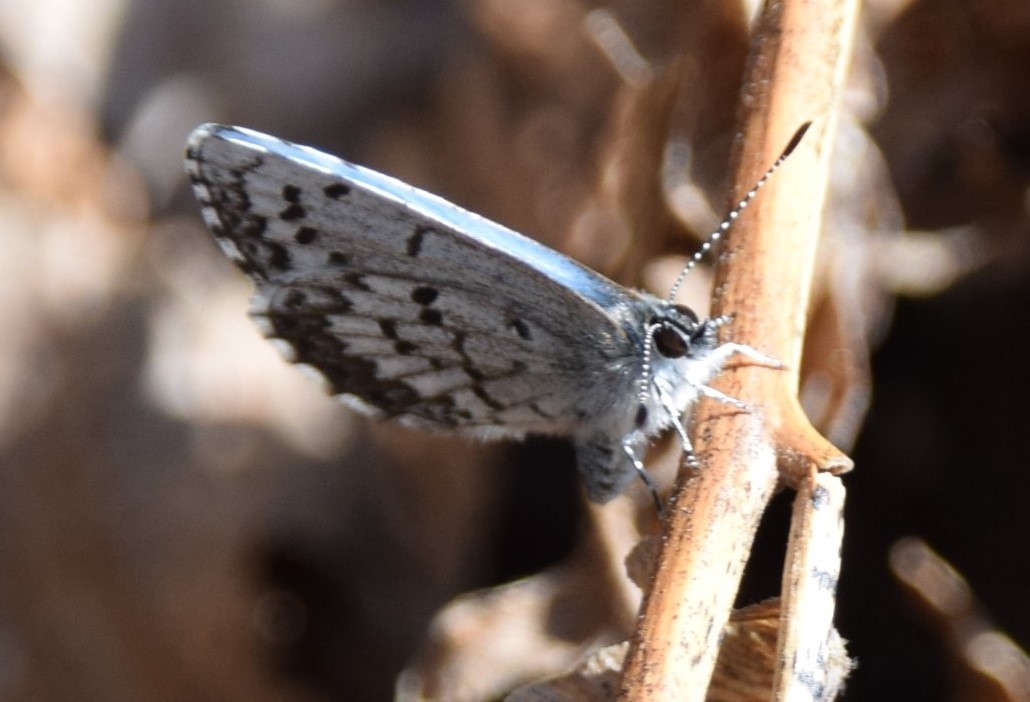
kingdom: Animalia
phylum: Arthropoda
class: Insecta
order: Lepidoptera
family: Lycaenidae
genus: Celastrina
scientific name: Celastrina lucia
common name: Lucia azure
